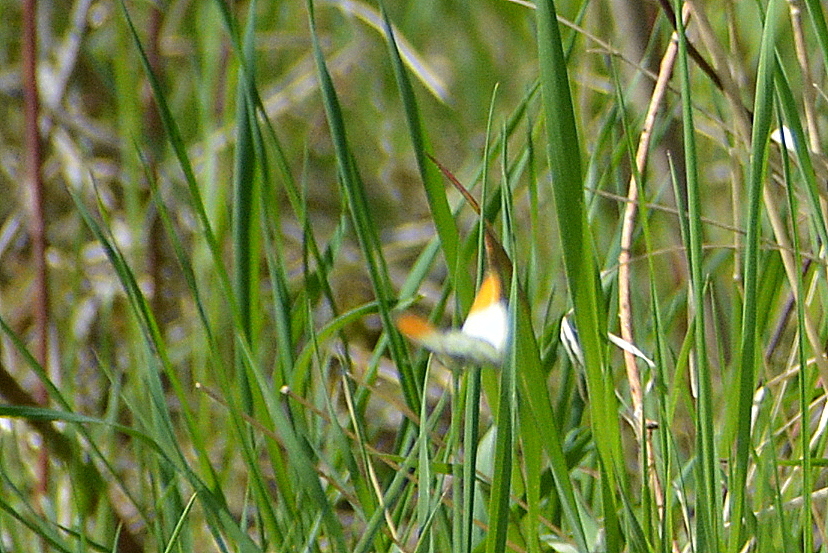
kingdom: Animalia
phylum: Arthropoda
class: Insecta
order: Lepidoptera
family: Pieridae
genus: Anthocharis
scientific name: Anthocharis cardamines
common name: Orange-tip
